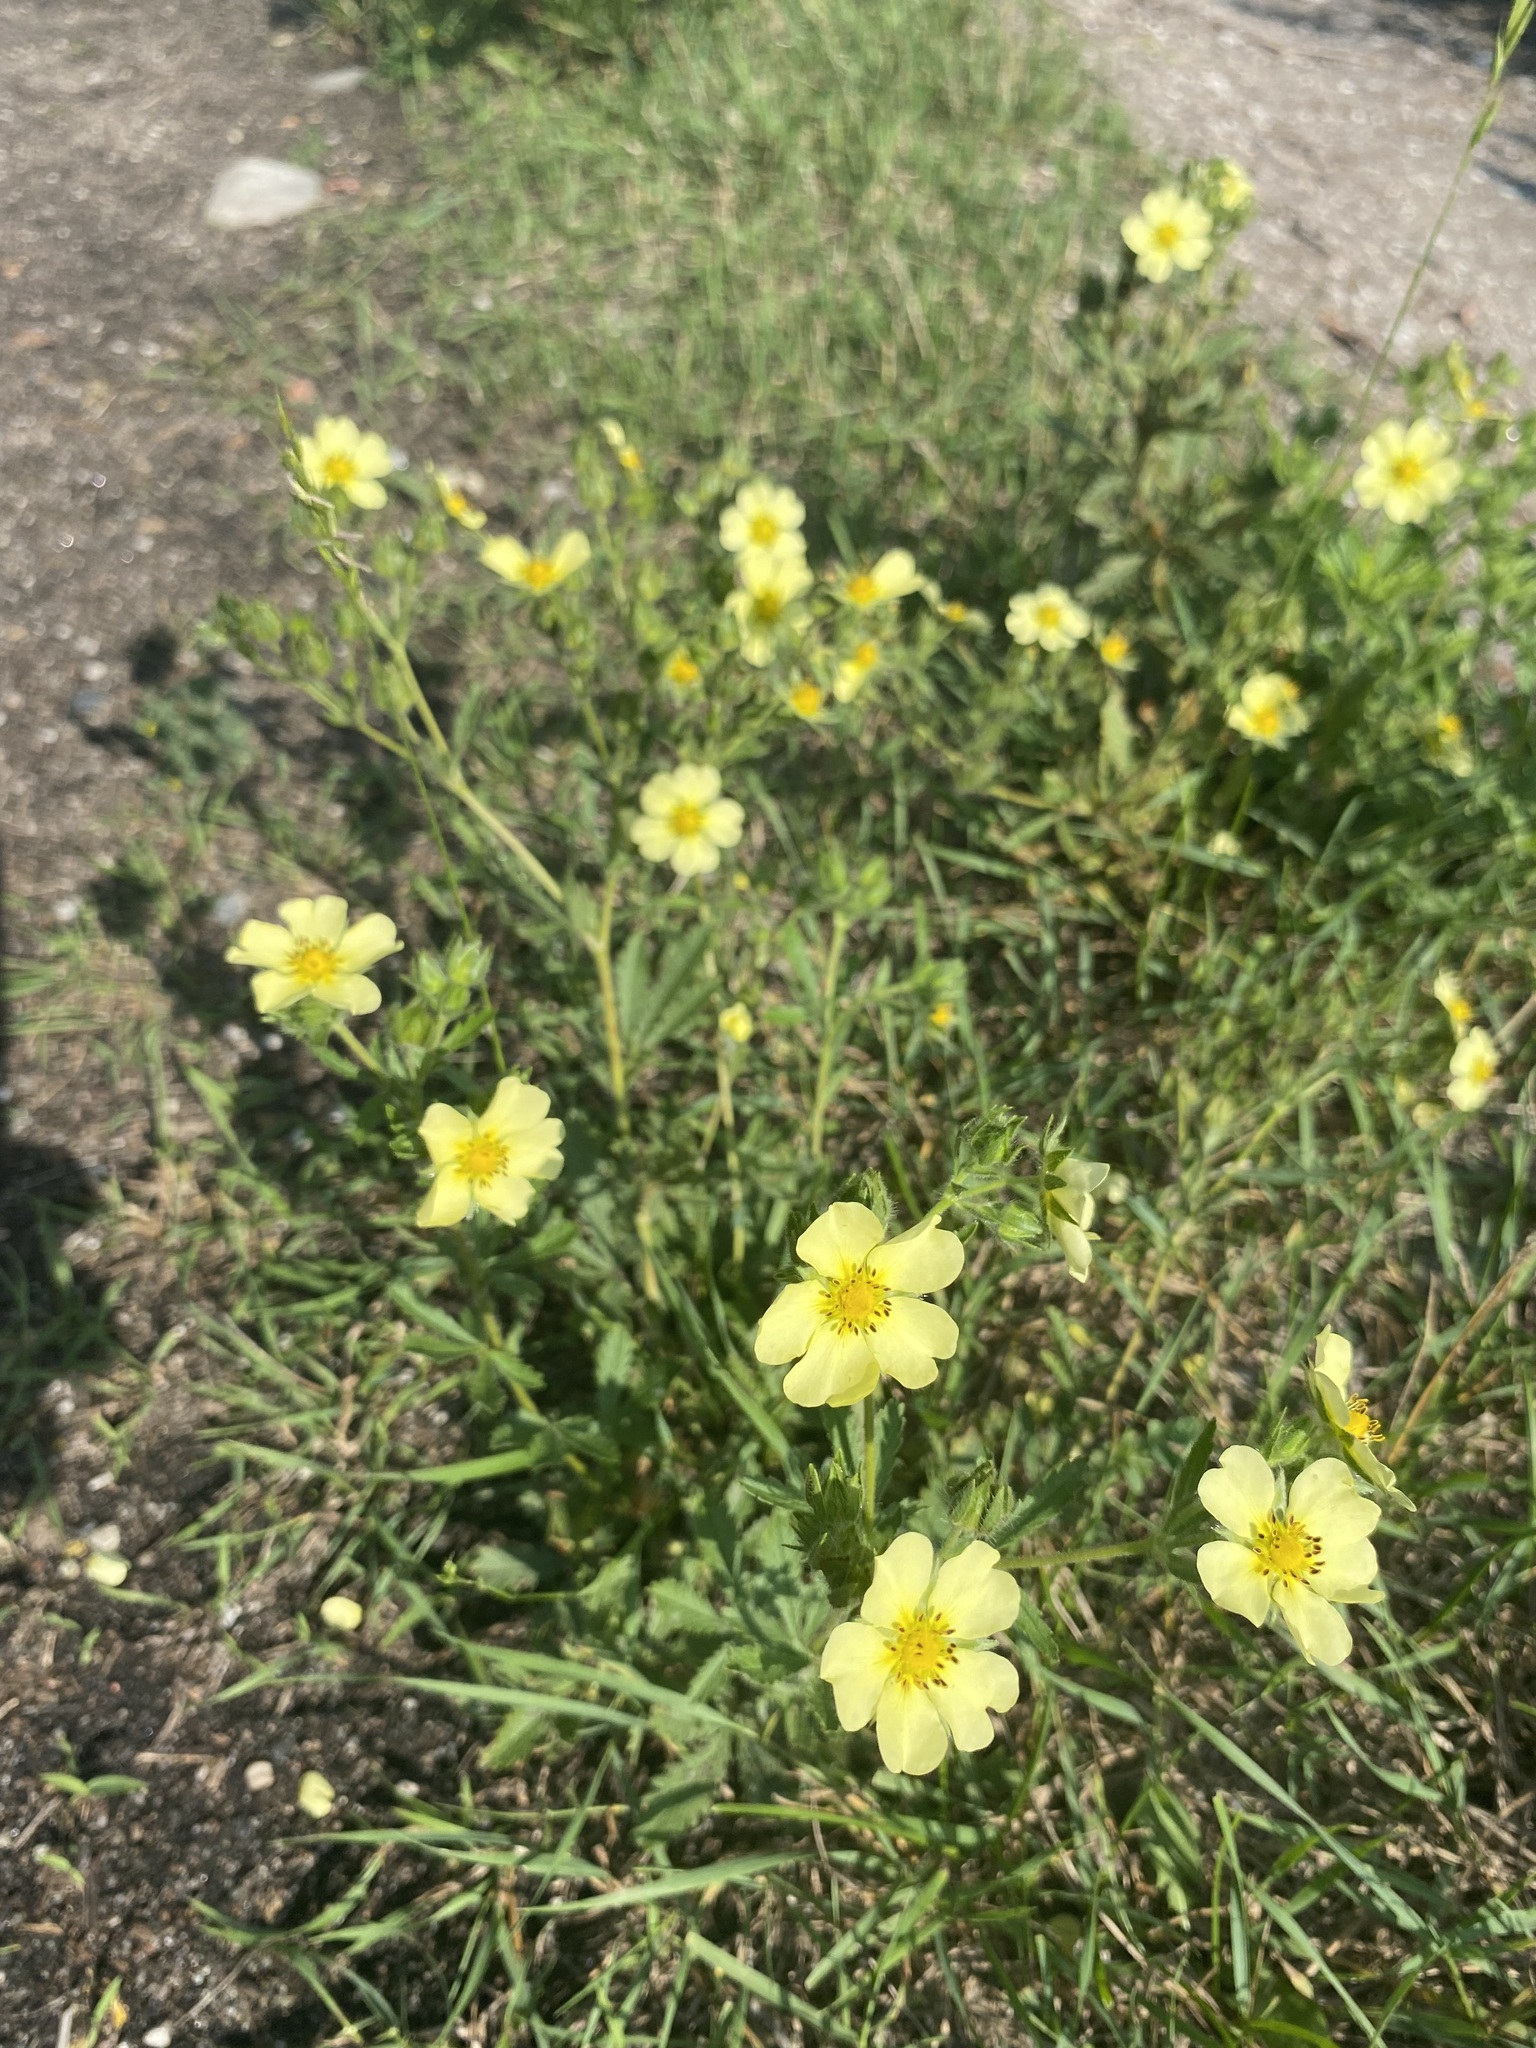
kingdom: Plantae
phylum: Tracheophyta
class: Magnoliopsida
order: Rosales
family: Rosaceae
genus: Potentilla
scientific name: Potentilla recta
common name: Sulphur cinquefoil
